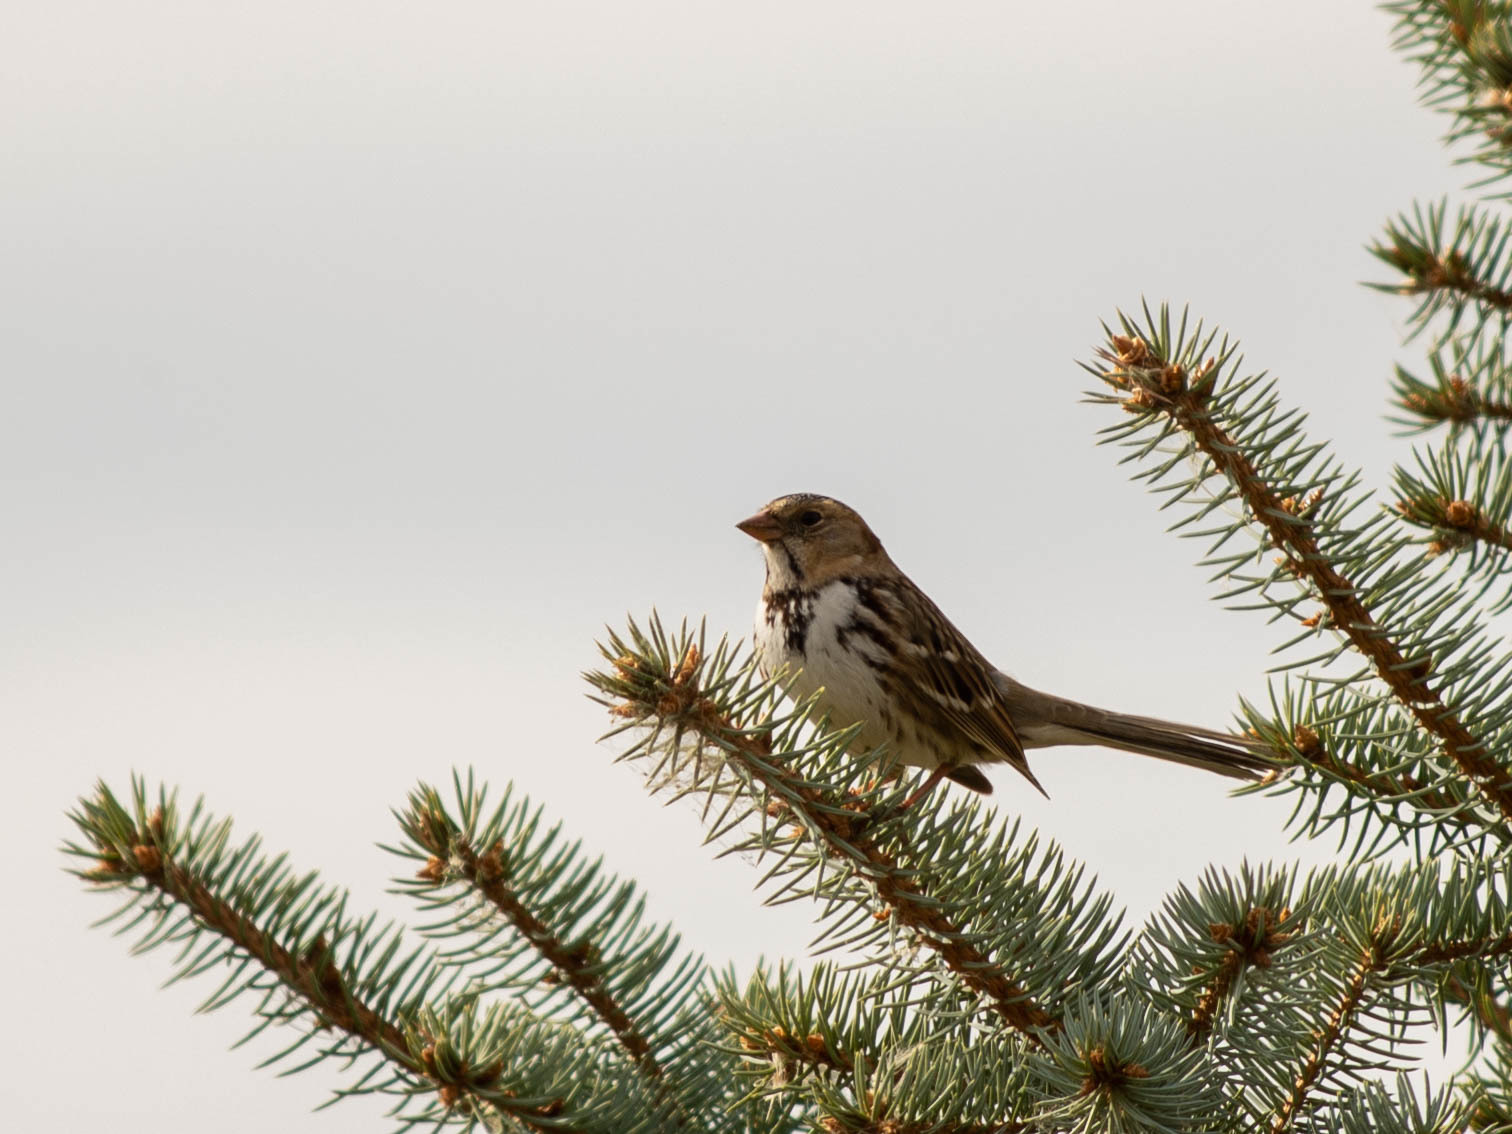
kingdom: Animalia
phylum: Chordata
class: Aves
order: Passeriformes
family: Passerellidae
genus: Zonotrichia
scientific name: Zonotrichia querula
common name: Harris's sparrow
